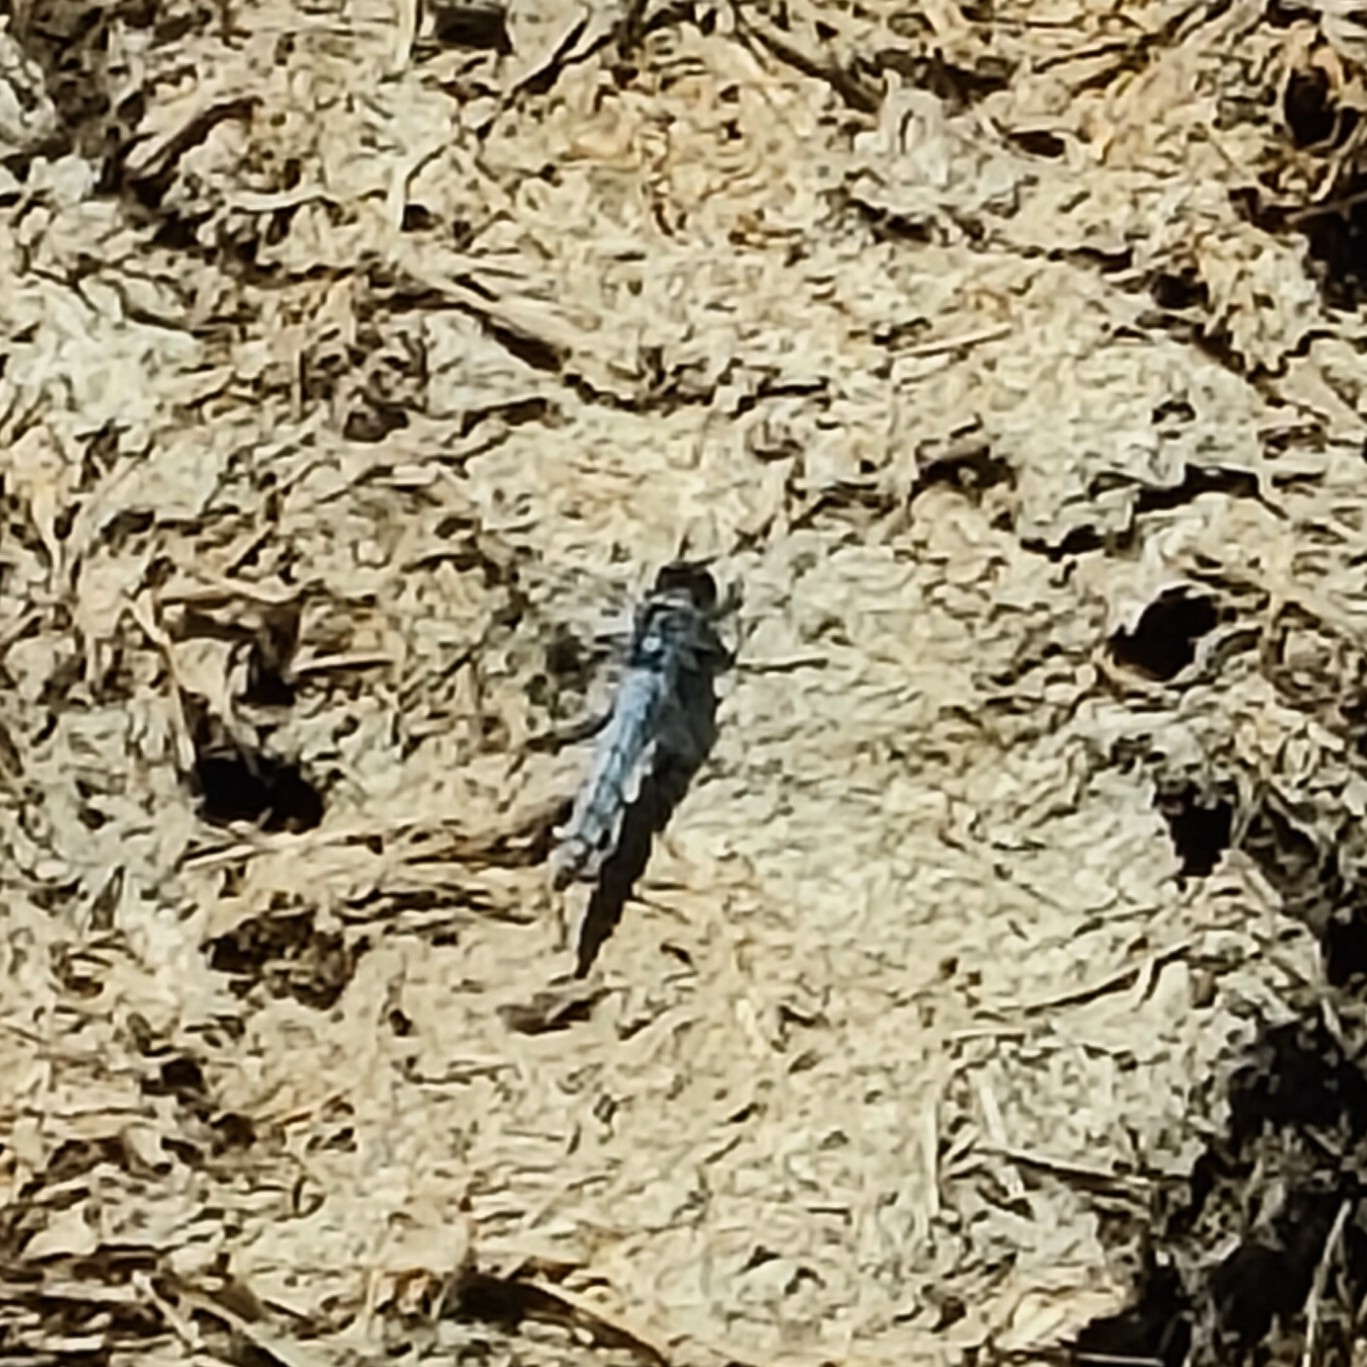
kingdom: Animalia
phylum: Arthropoda
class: Insecta
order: Odonata
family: Libellulidae
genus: Orthetrum
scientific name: Orthetrum brunneum
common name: Southern skimmer
